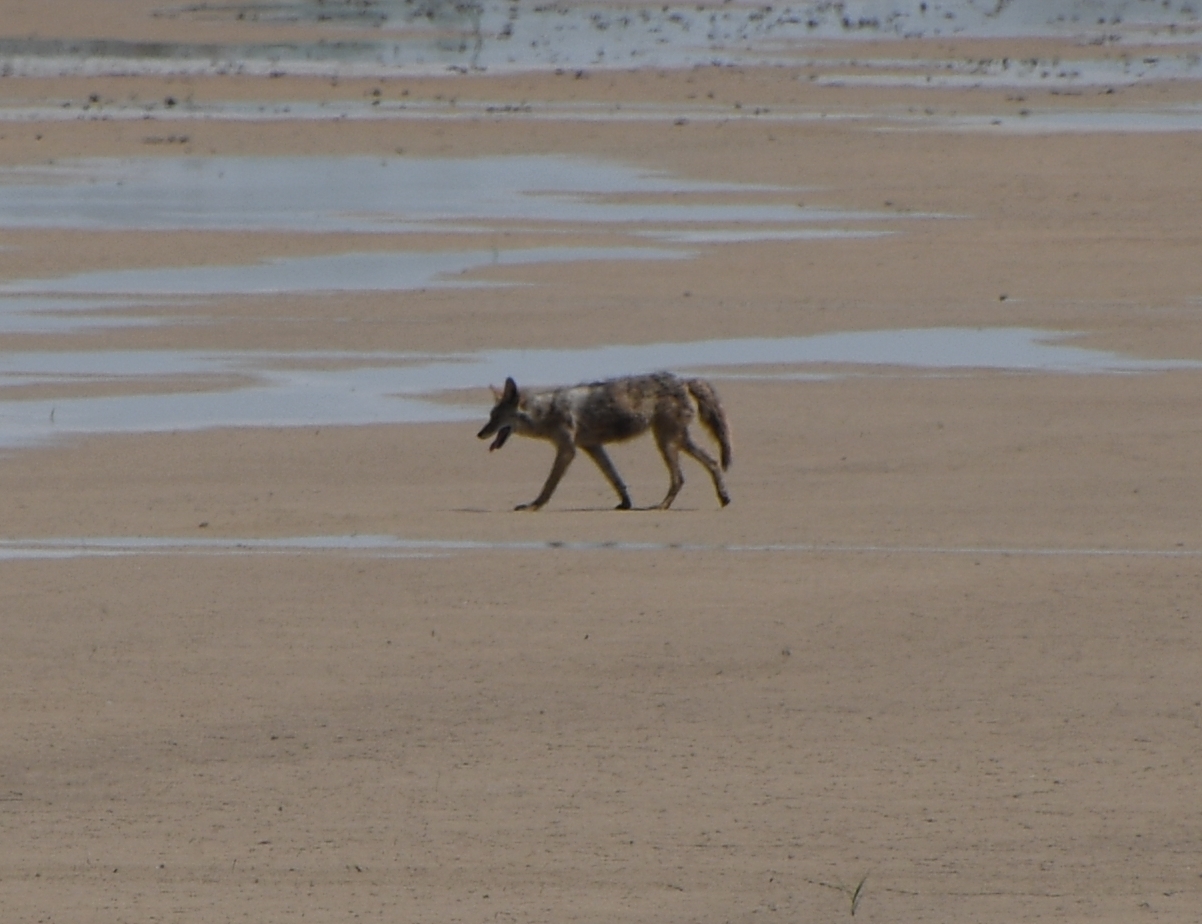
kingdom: Animalia
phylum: Chordata
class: Mammalia
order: Carnivora
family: Canidae
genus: Canis
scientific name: Canis latrans
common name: Coyote
